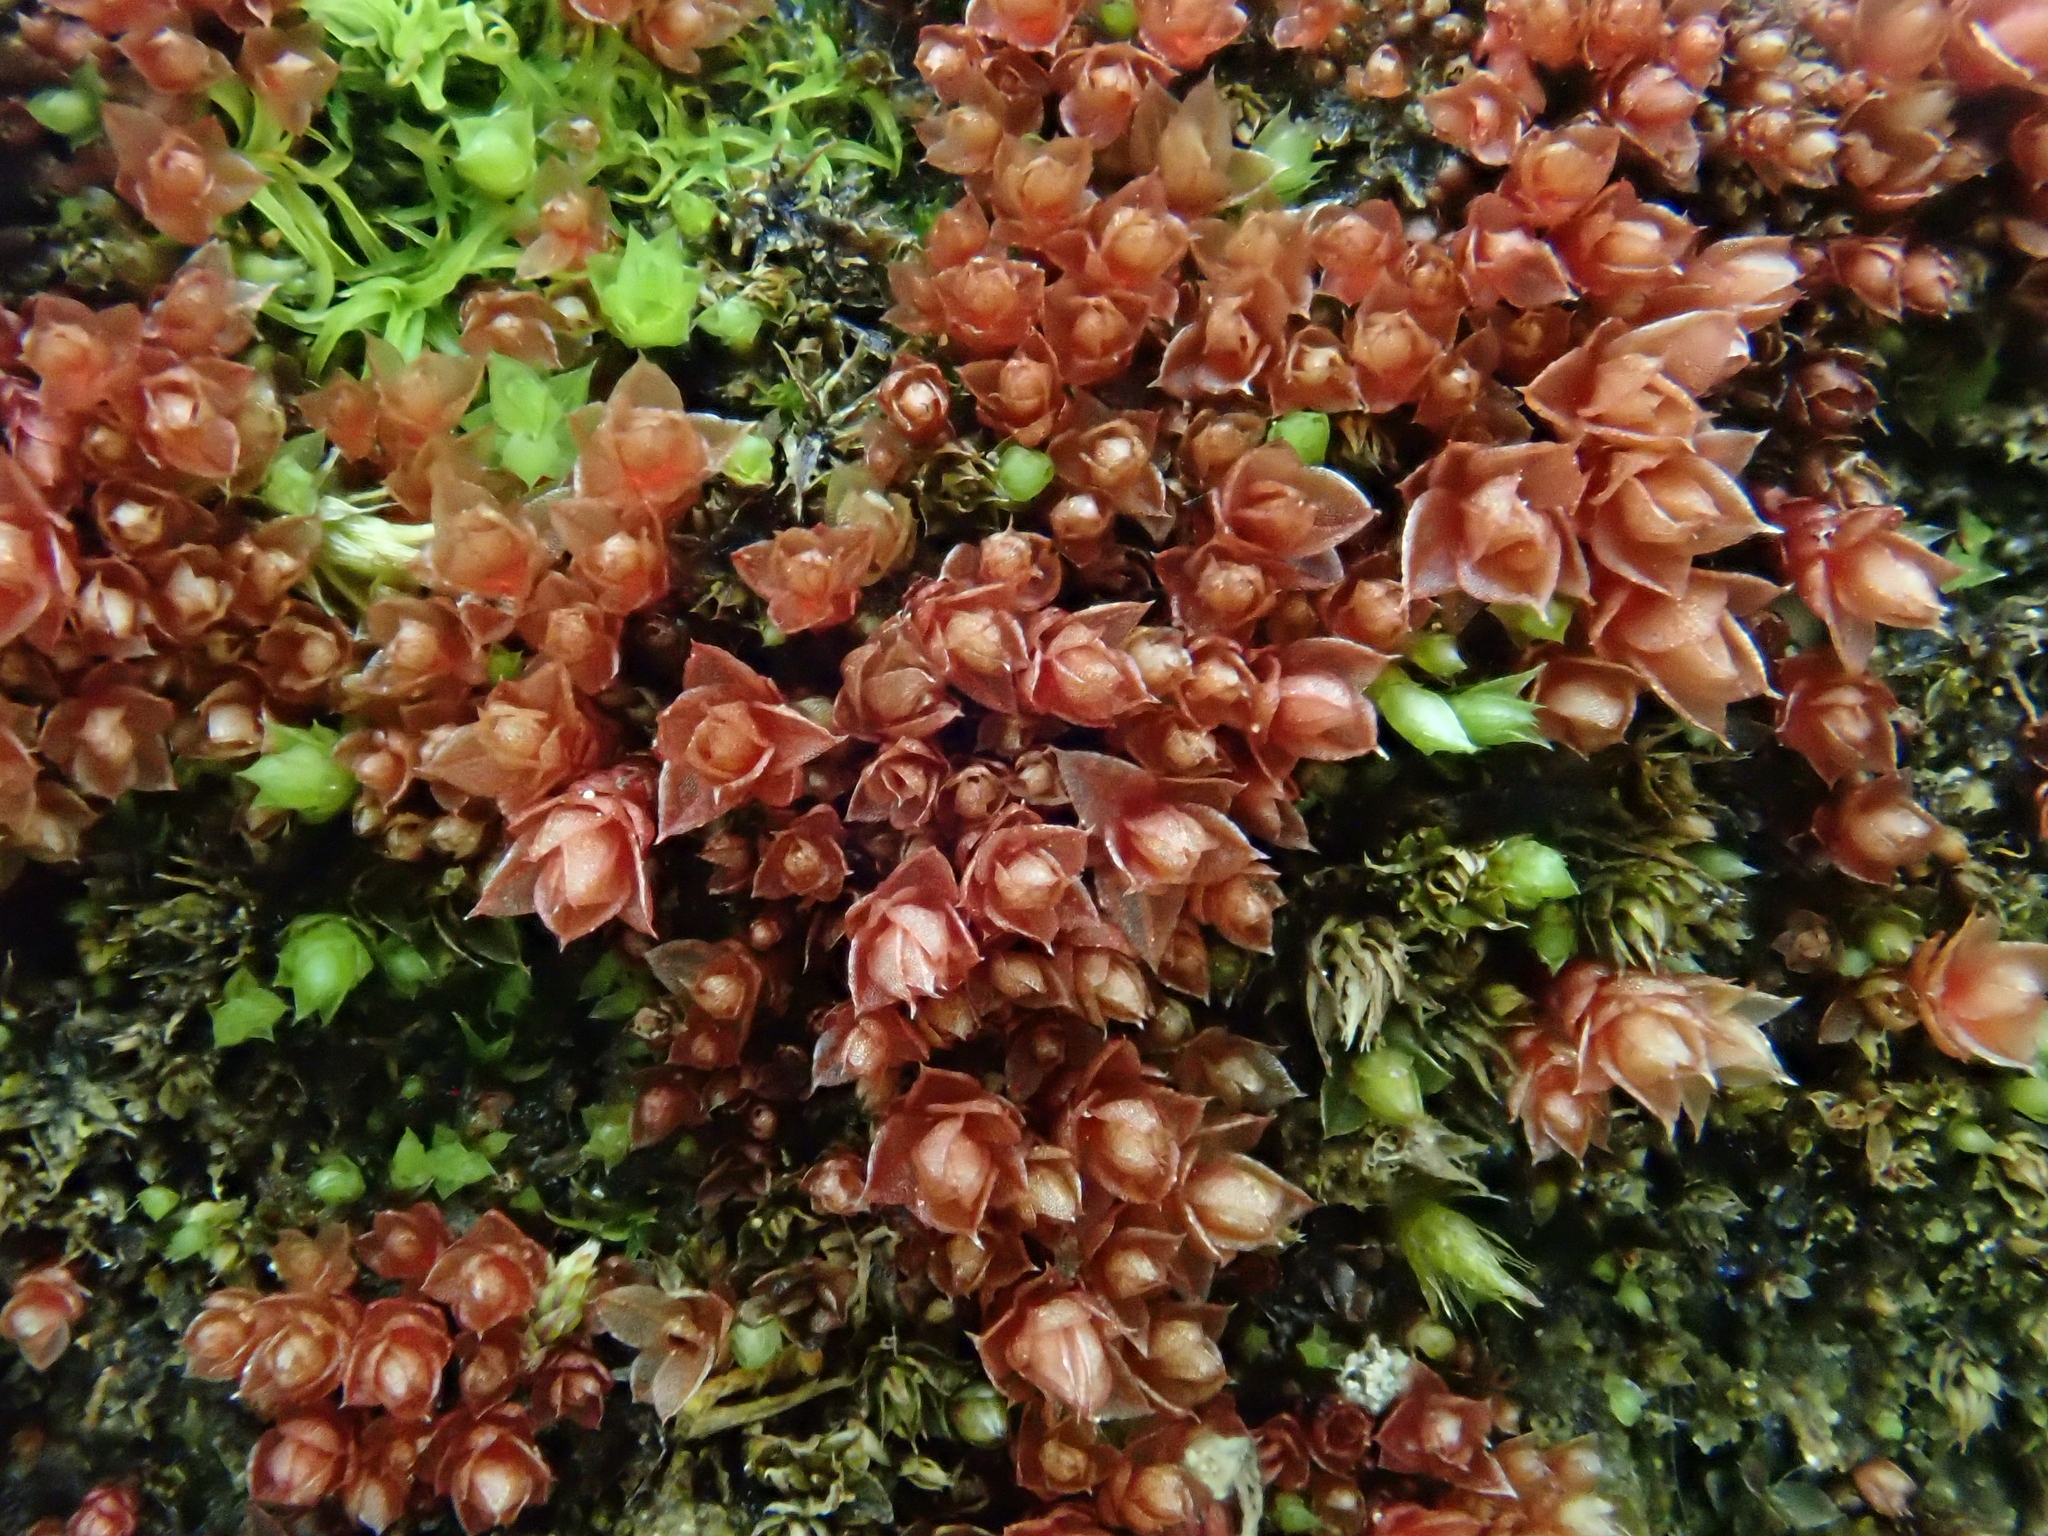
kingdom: Plantae
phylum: Bryophyta
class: Bryopsida
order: Bryales
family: Bryaceae
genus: Ptychostomum
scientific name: Ptychostomum pallens
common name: Pale thread-moss
